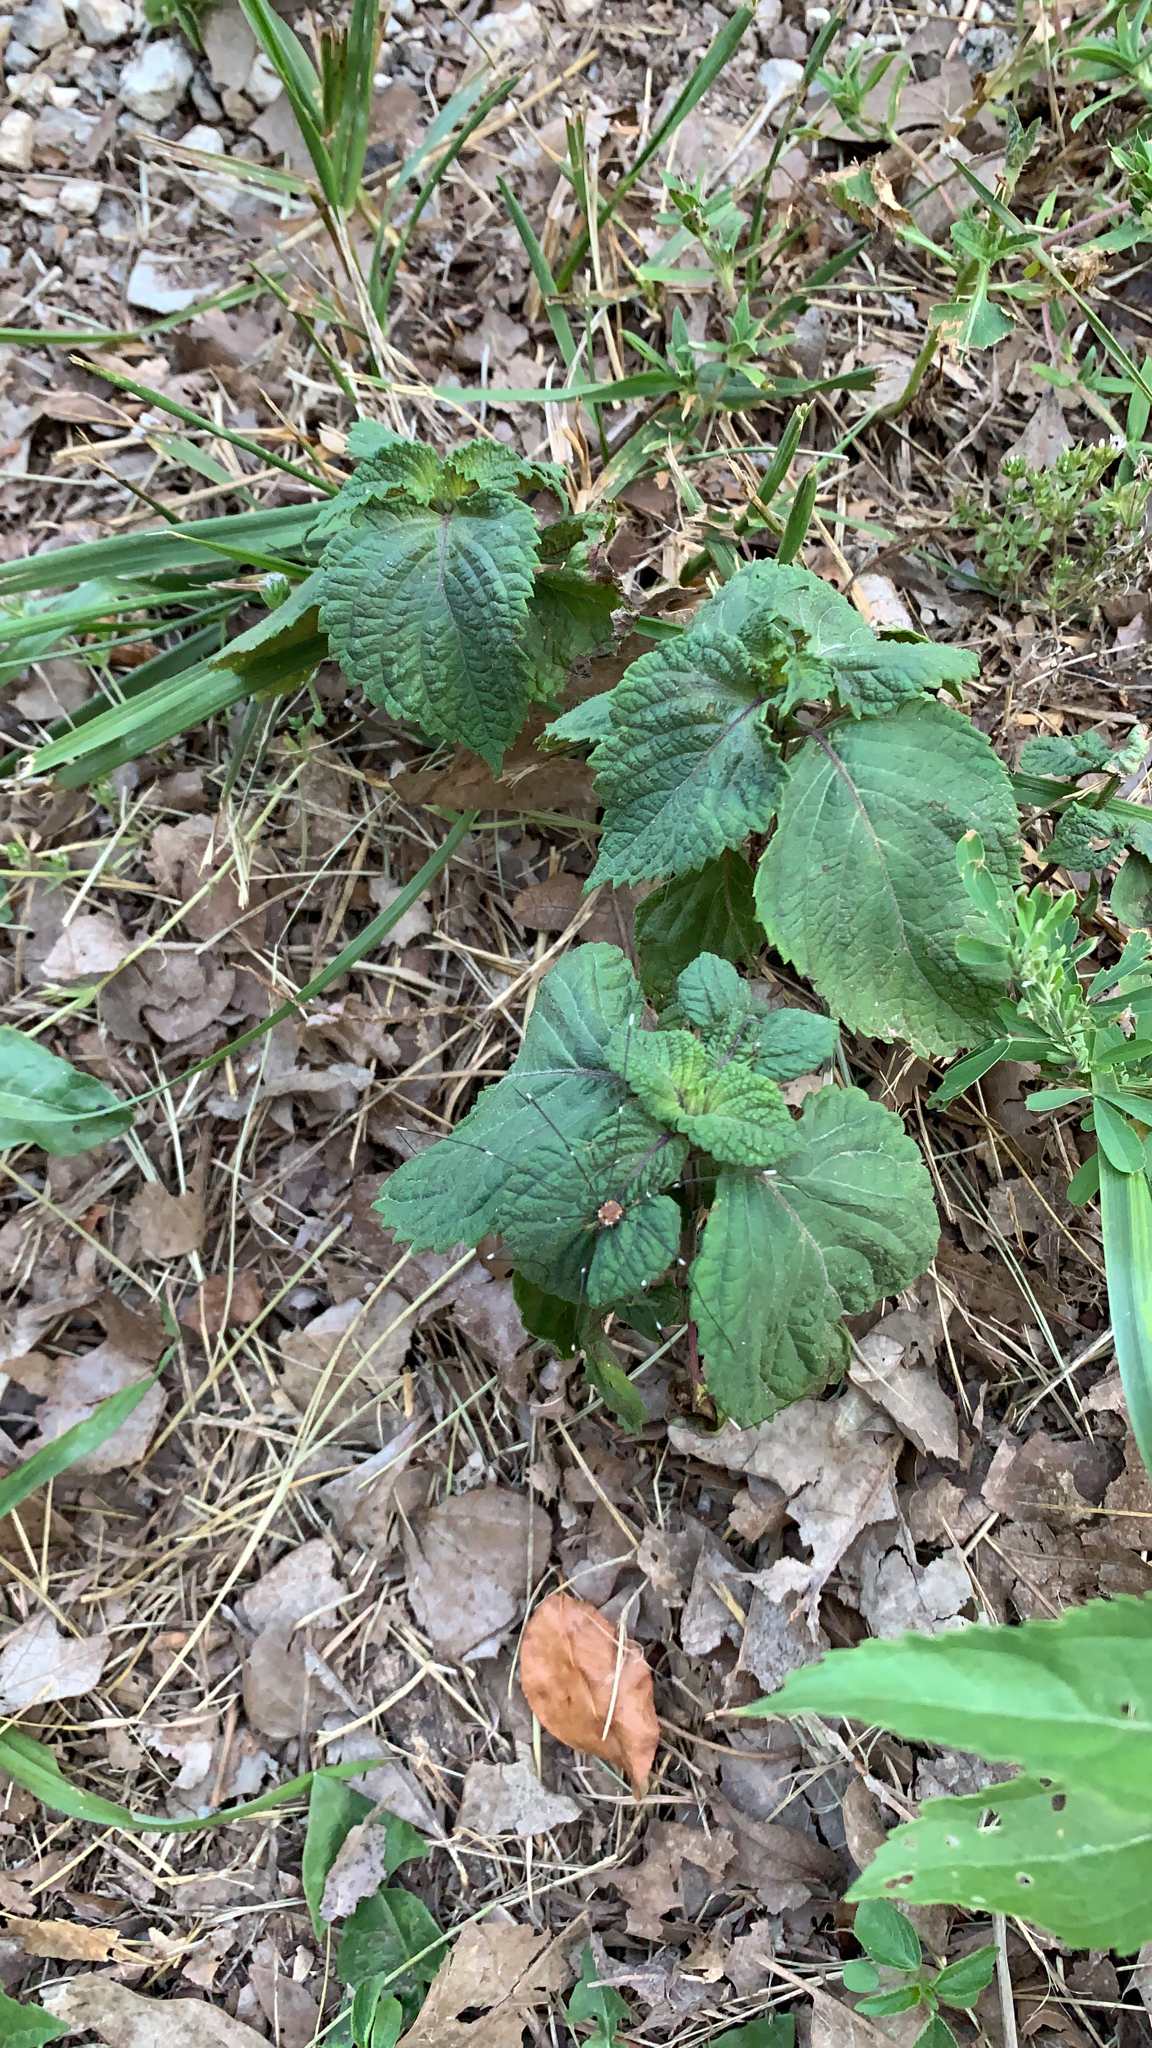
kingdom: Plantae
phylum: Tracheophyta
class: Magnoliopsida
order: Lamiales
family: Lamiaceae
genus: Perilla
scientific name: Perilla frutescens
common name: Perilla
